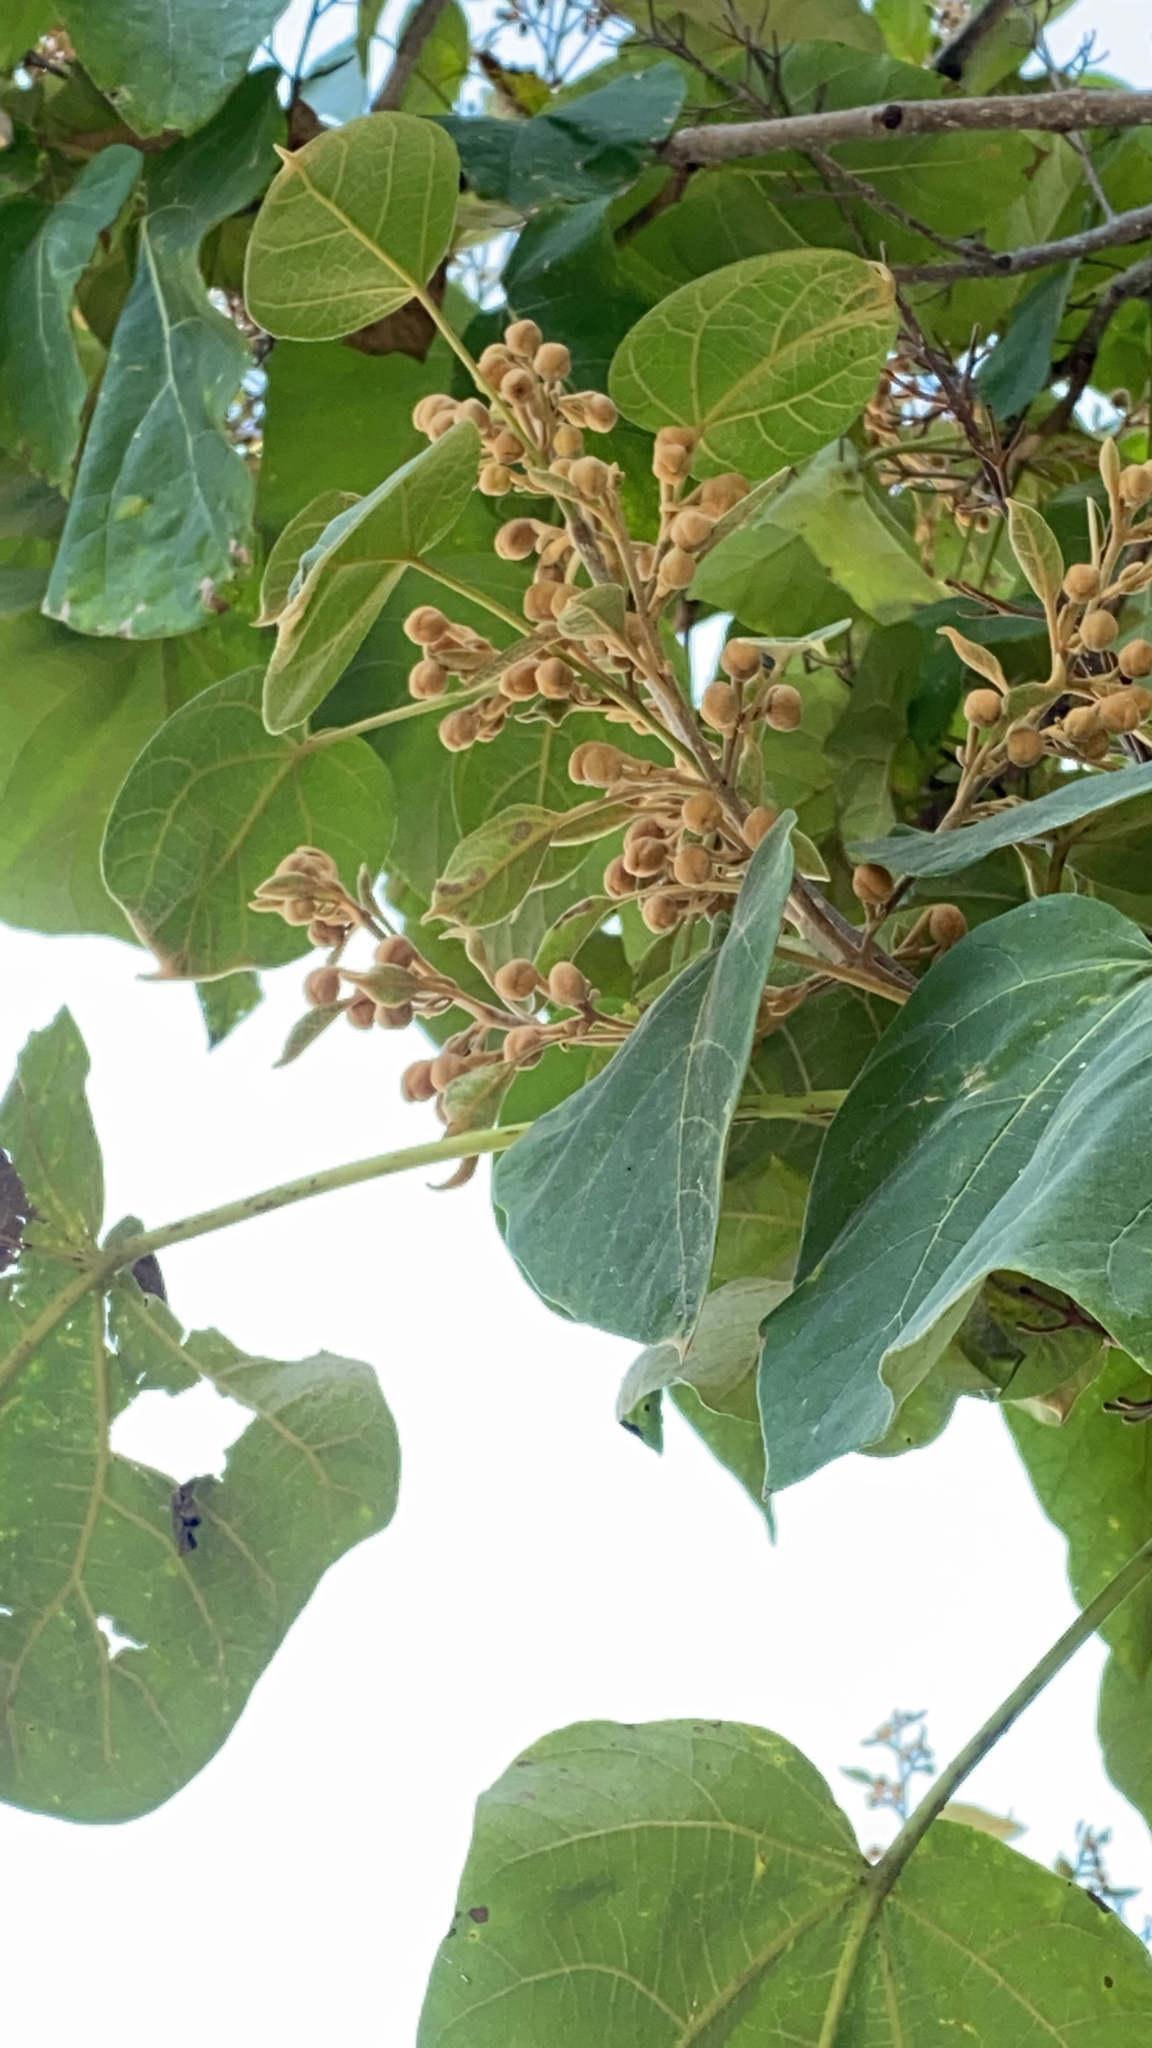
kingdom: Plantae
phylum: Tracheophyta
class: Magnoliopsida
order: Lamiales
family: Paulowniaceae
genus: Paulownia
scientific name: Paulownia tomentosa
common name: Foxglove-tree
